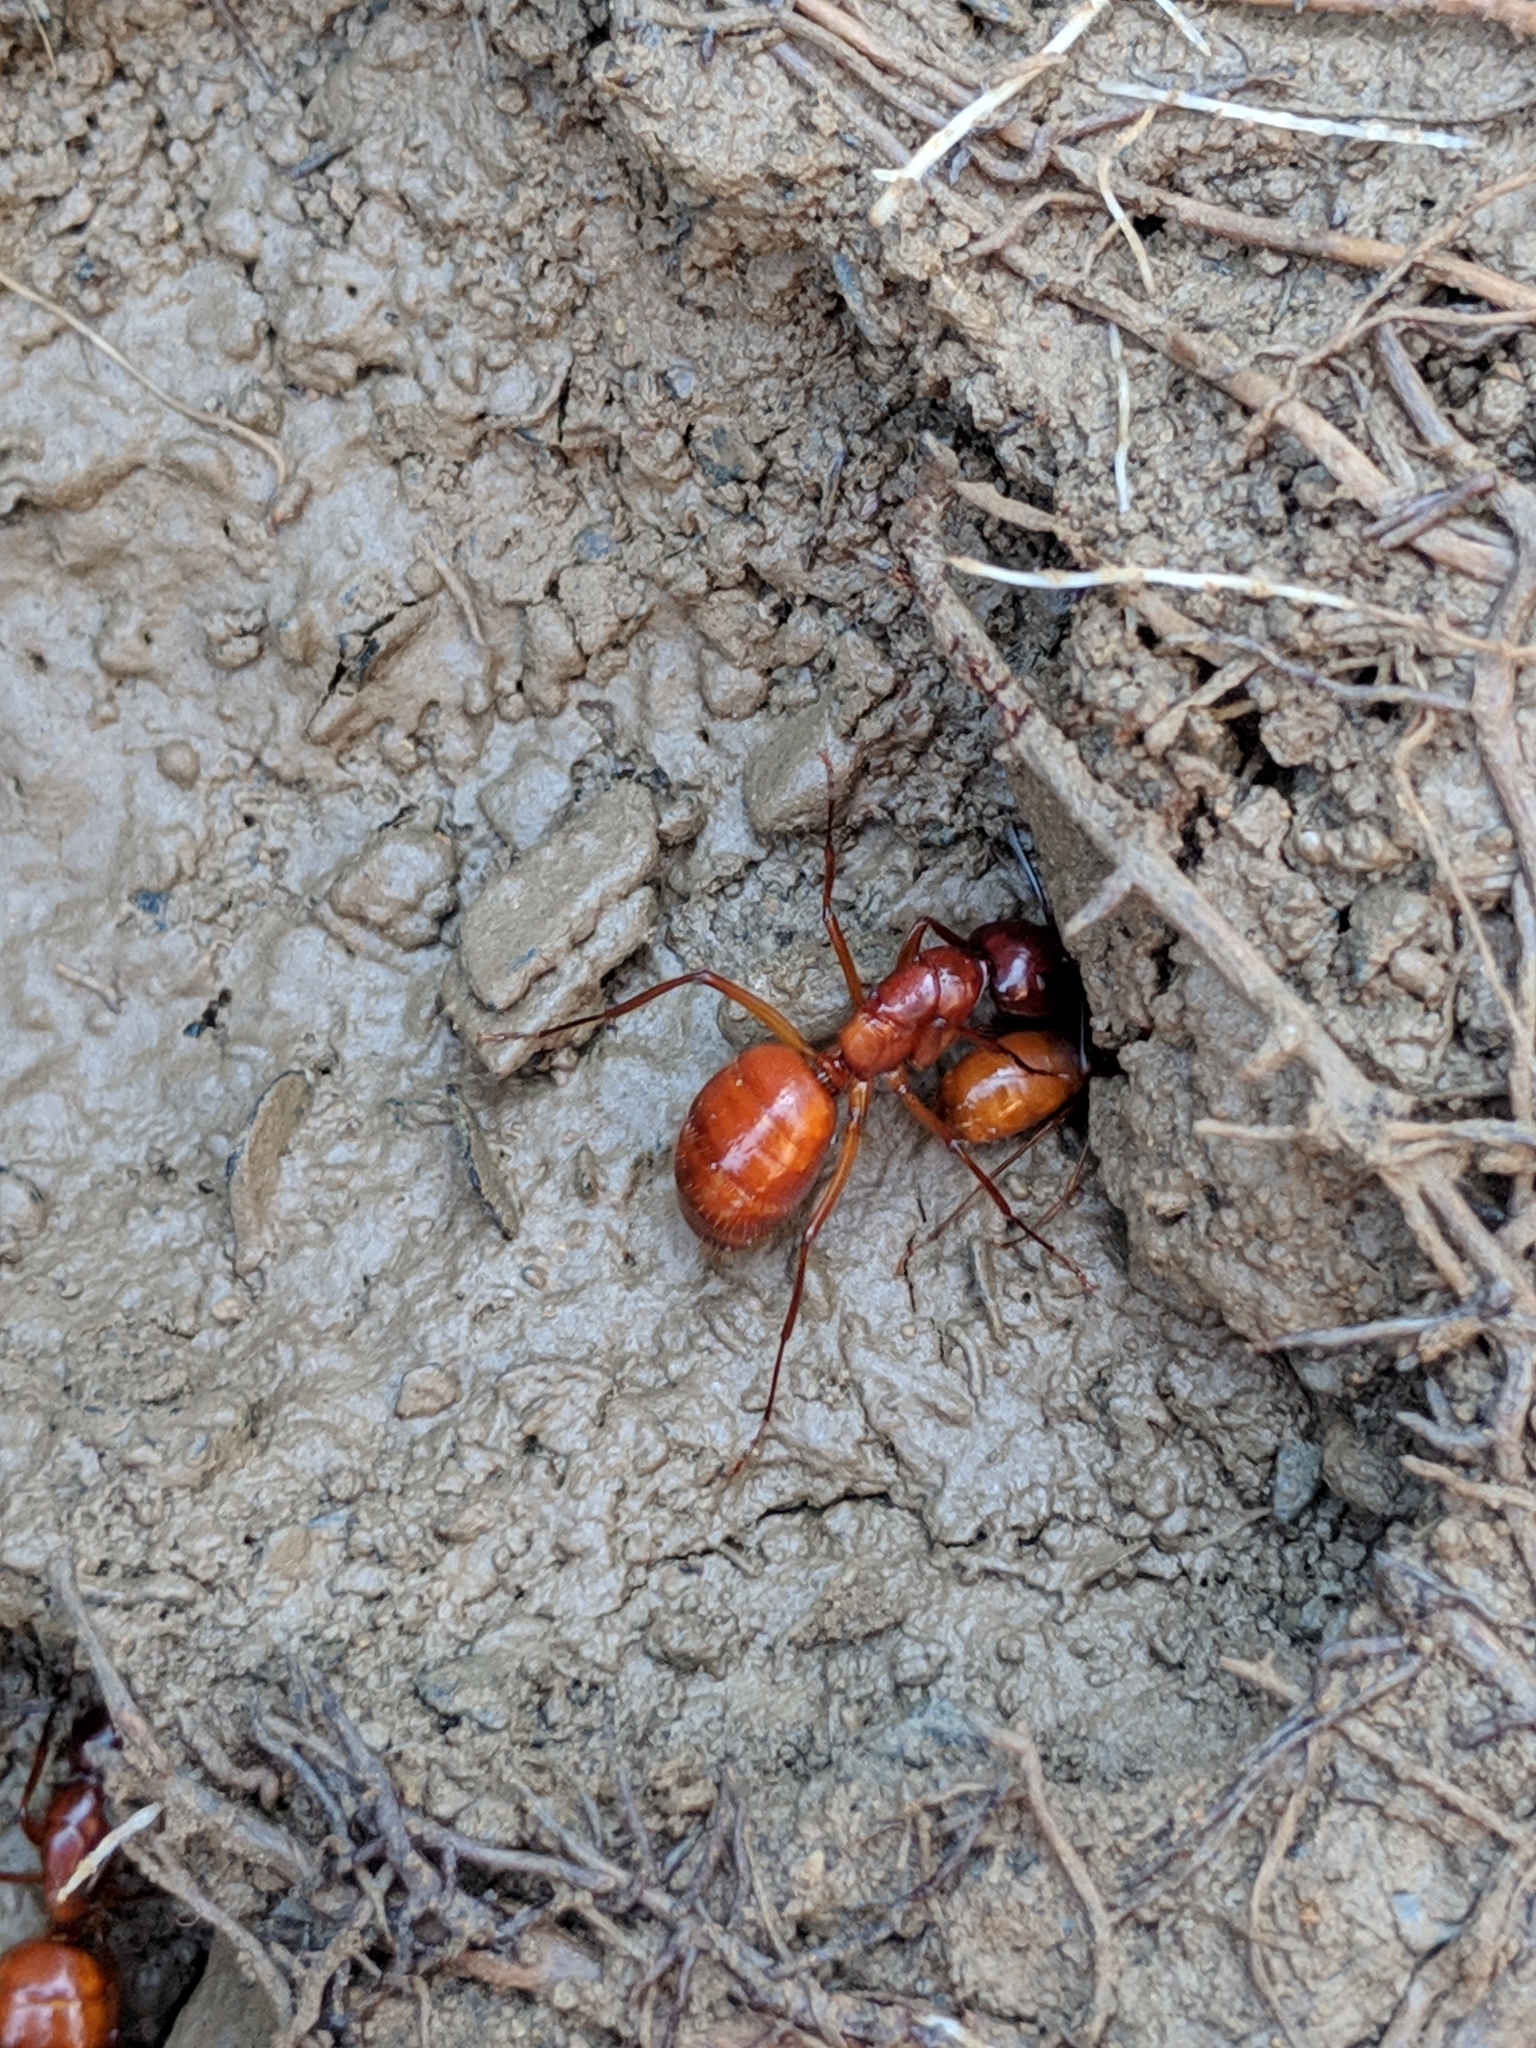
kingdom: Animalia
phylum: Arthropoda
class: Insecta
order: Hymenoptera
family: Formicidae
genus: Camponotus
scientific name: Camponotus castaneus
